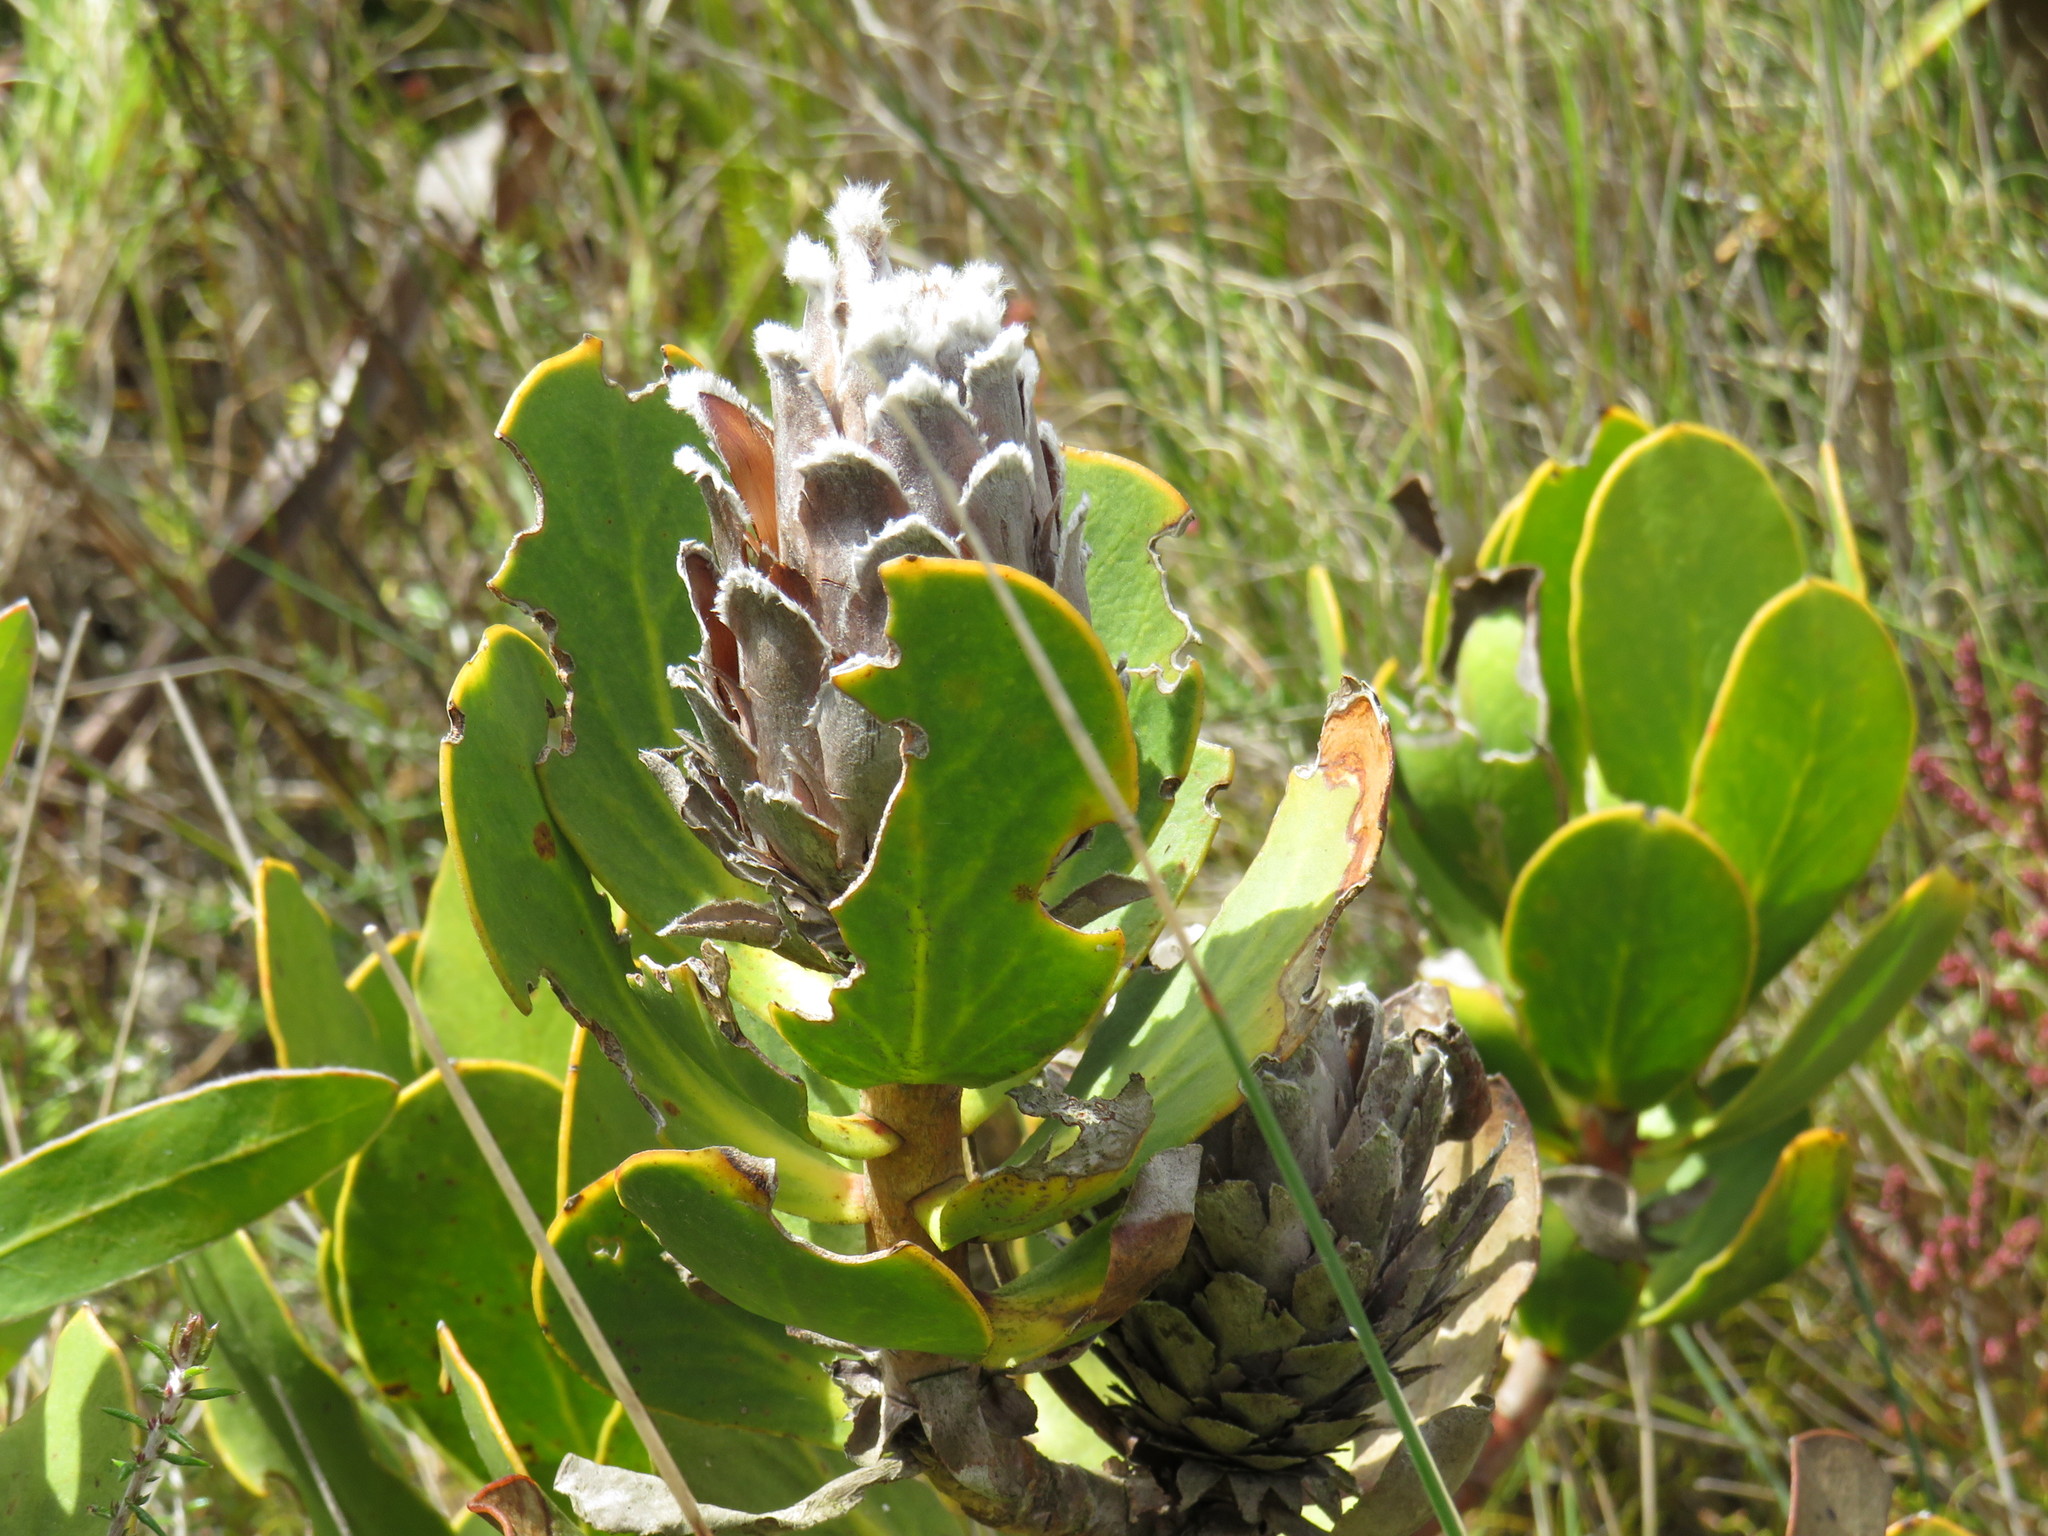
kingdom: Plantae
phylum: Tracheophyta
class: Magnoliopsida
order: Proteales
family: Proteaceae
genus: Protea
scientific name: Protea speciosa
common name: Brown-beard sugarbush
